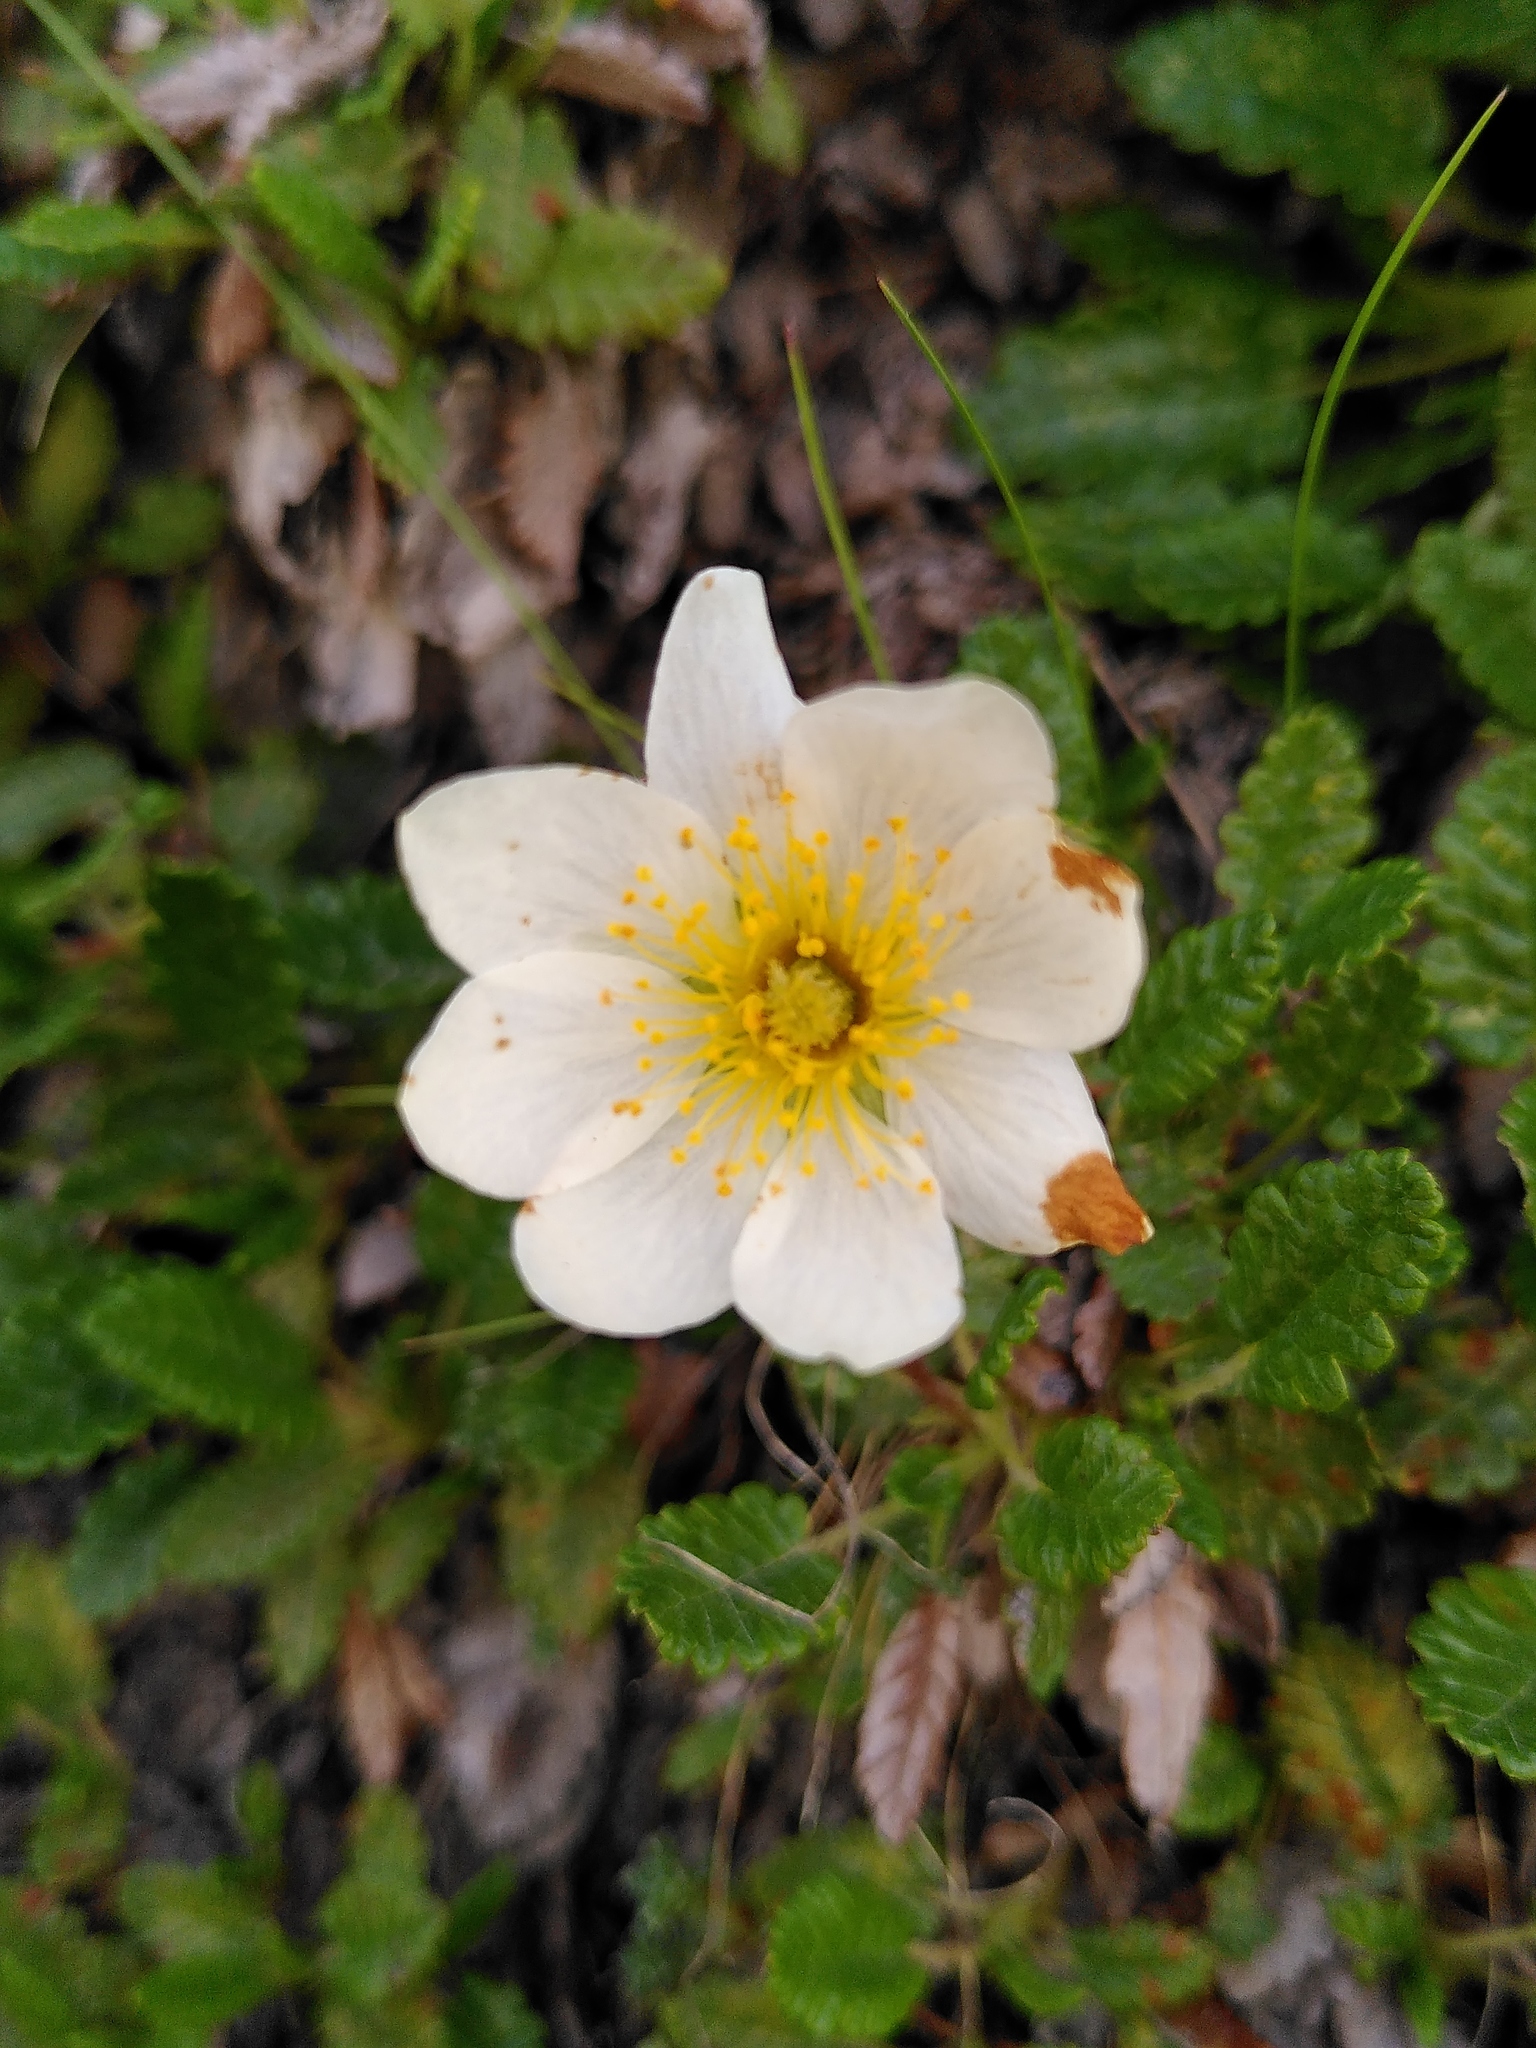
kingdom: Plantae
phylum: Tracheophyta
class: Magnoliopsida
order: Rosales
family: Rosaceae
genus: Dryas
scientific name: Dryas octopetala
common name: Eight-petal mountain-avens
